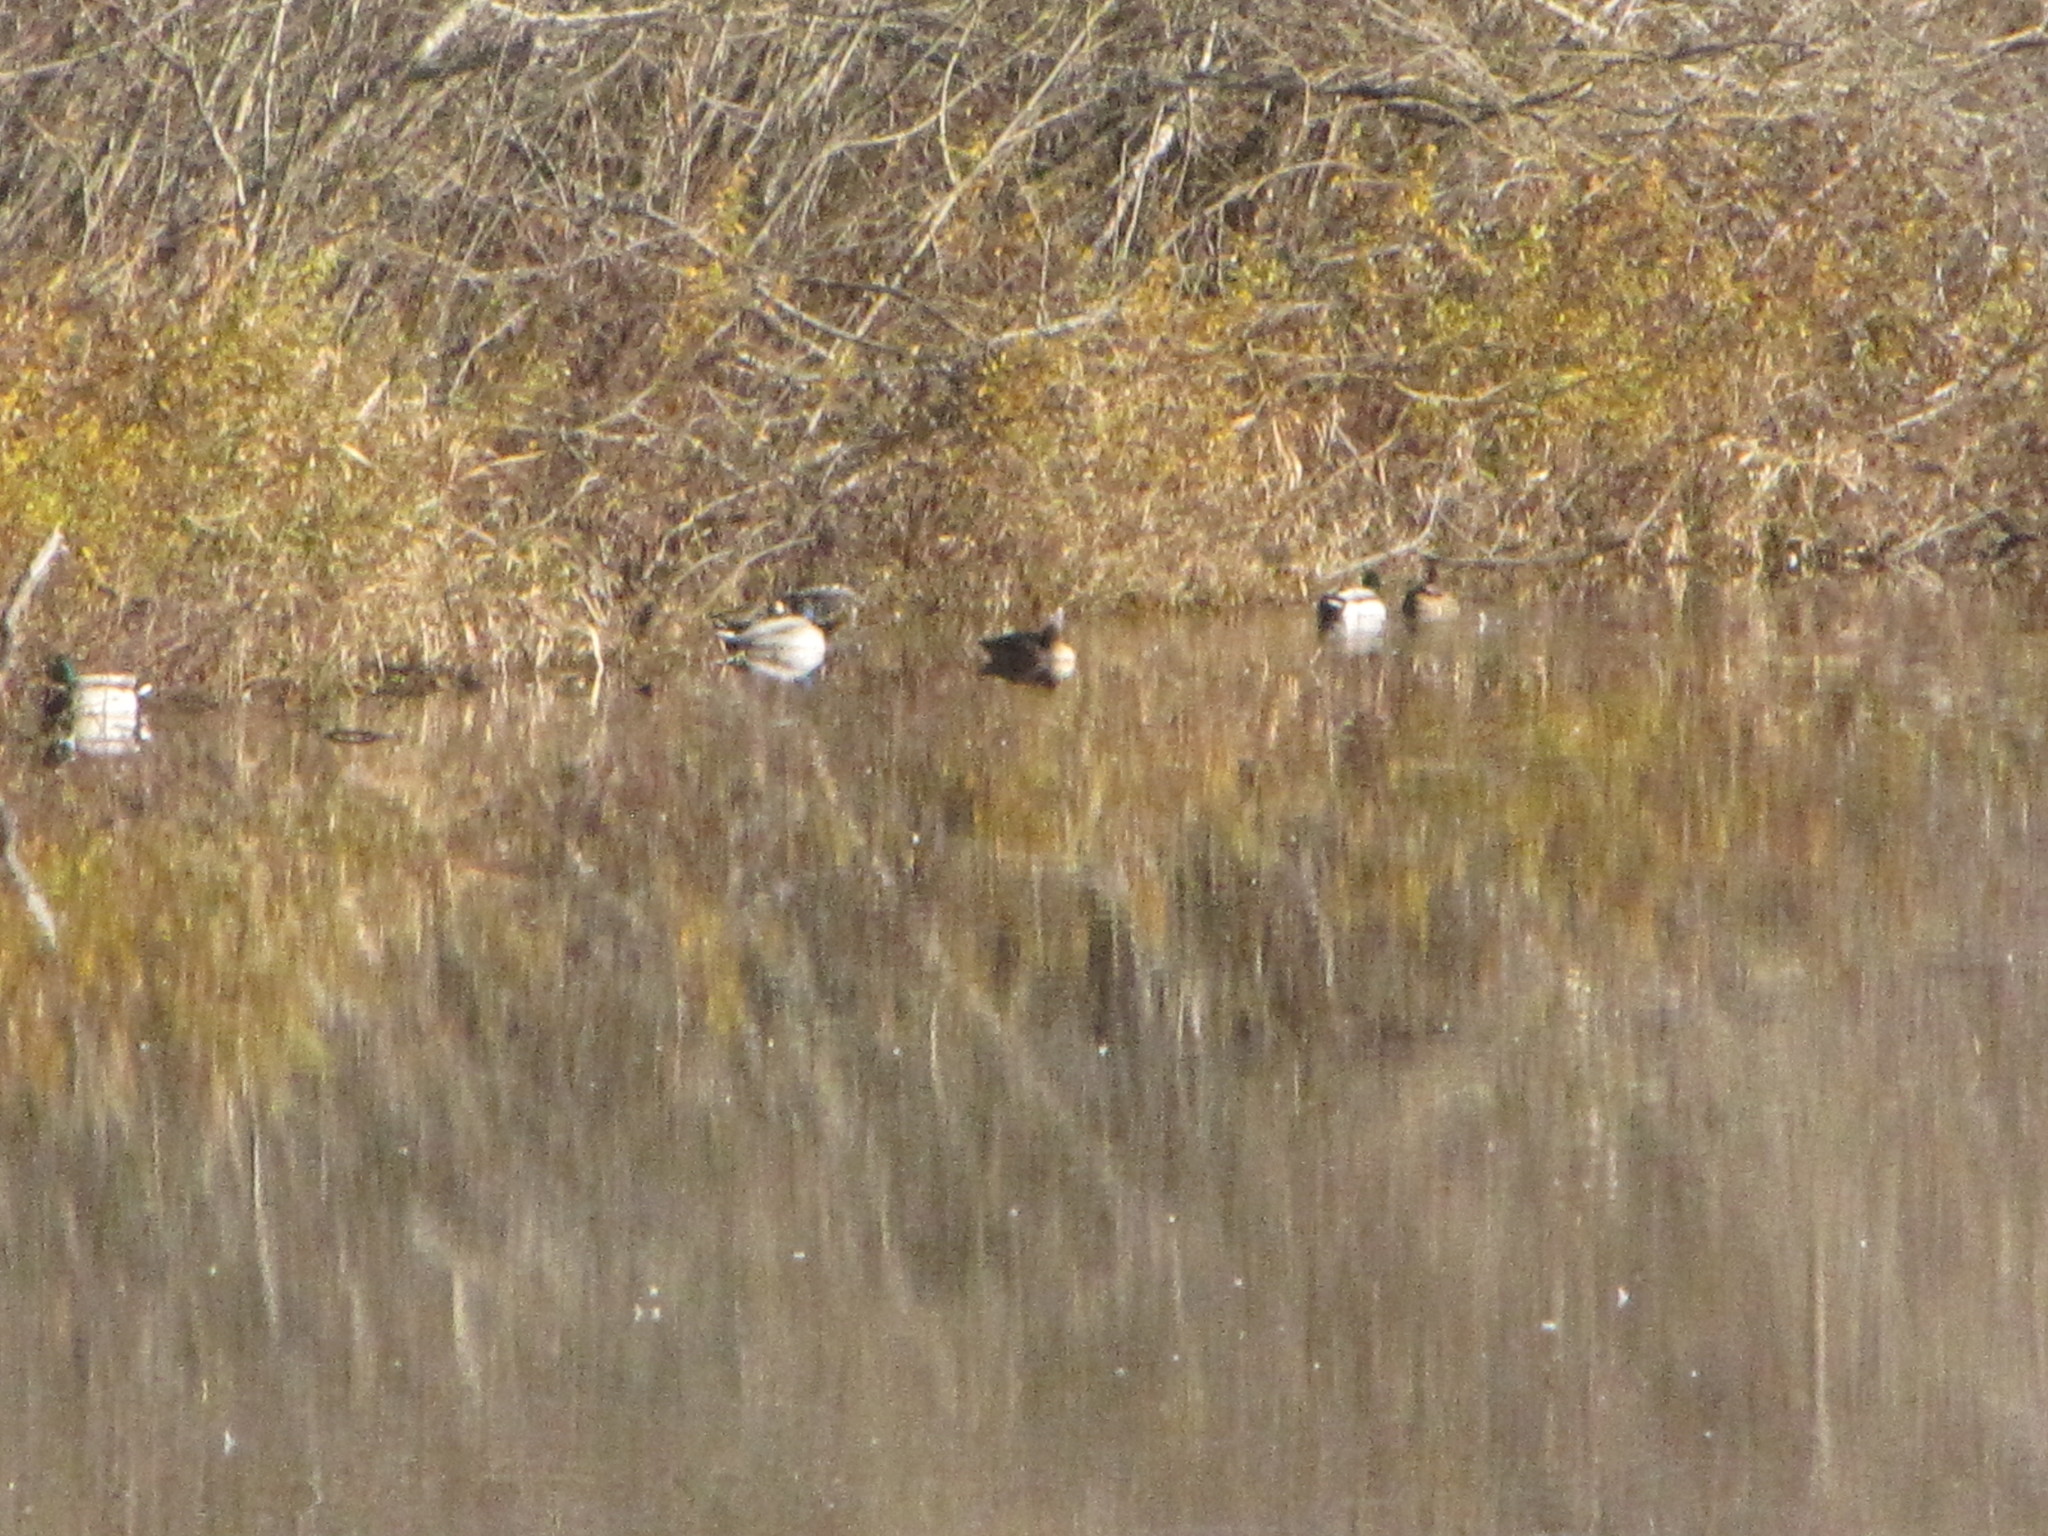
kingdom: Animalia
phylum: Chordata
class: Aves
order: Anseriformes
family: Anatidae
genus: Anas
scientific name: Anas platyrhynchos
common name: Mallard
